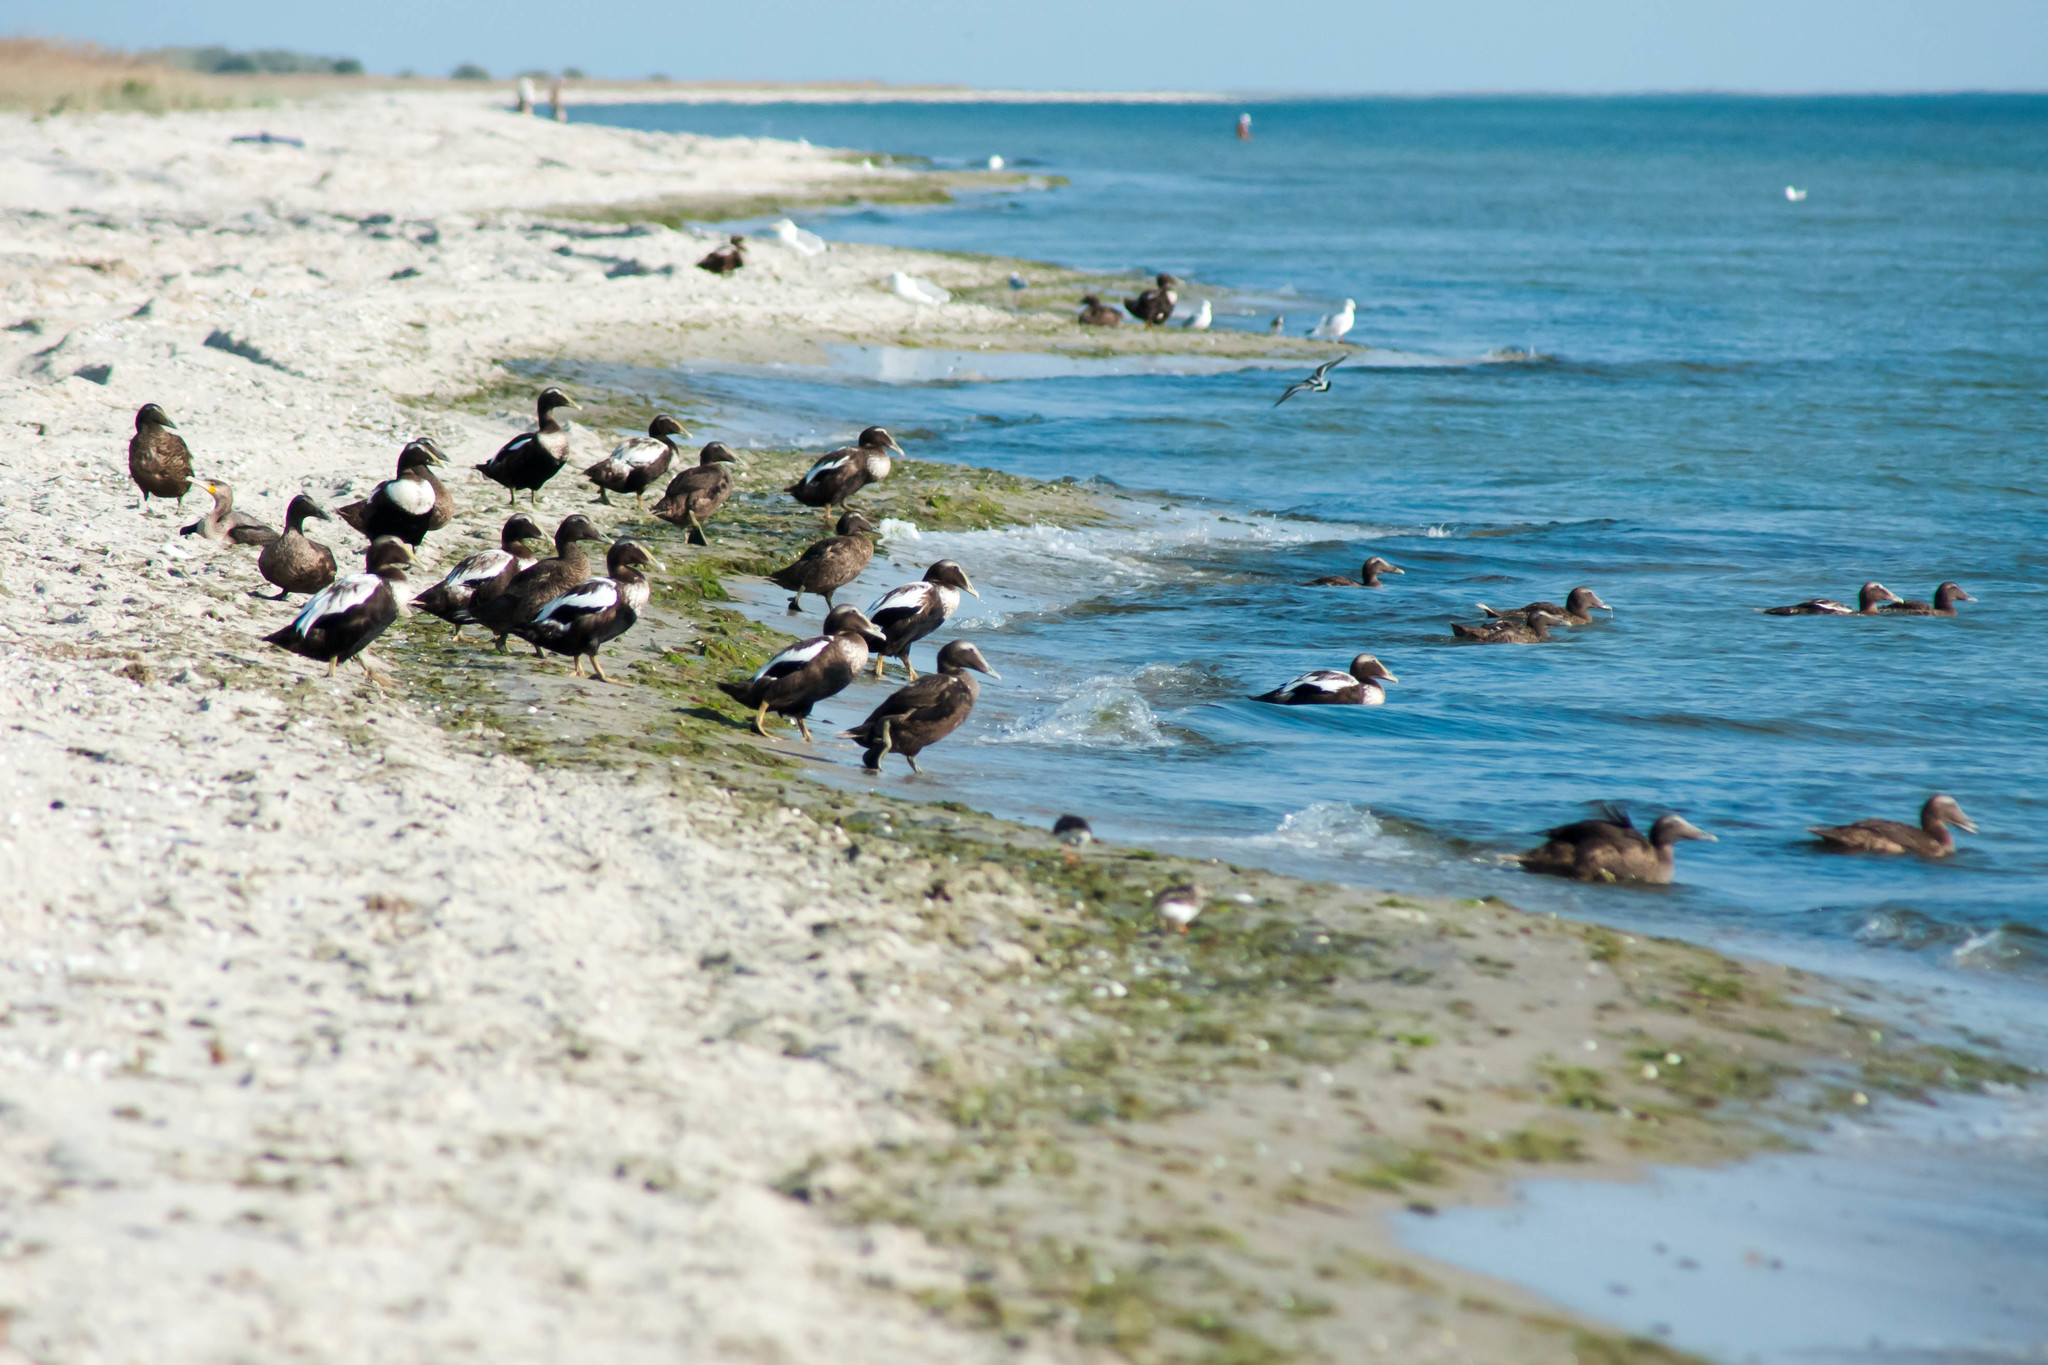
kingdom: Animalia
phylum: Chordata
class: Aves
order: Anseriformes
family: Anatidae
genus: Somateria
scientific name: Somateria mollissima
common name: Common eider
